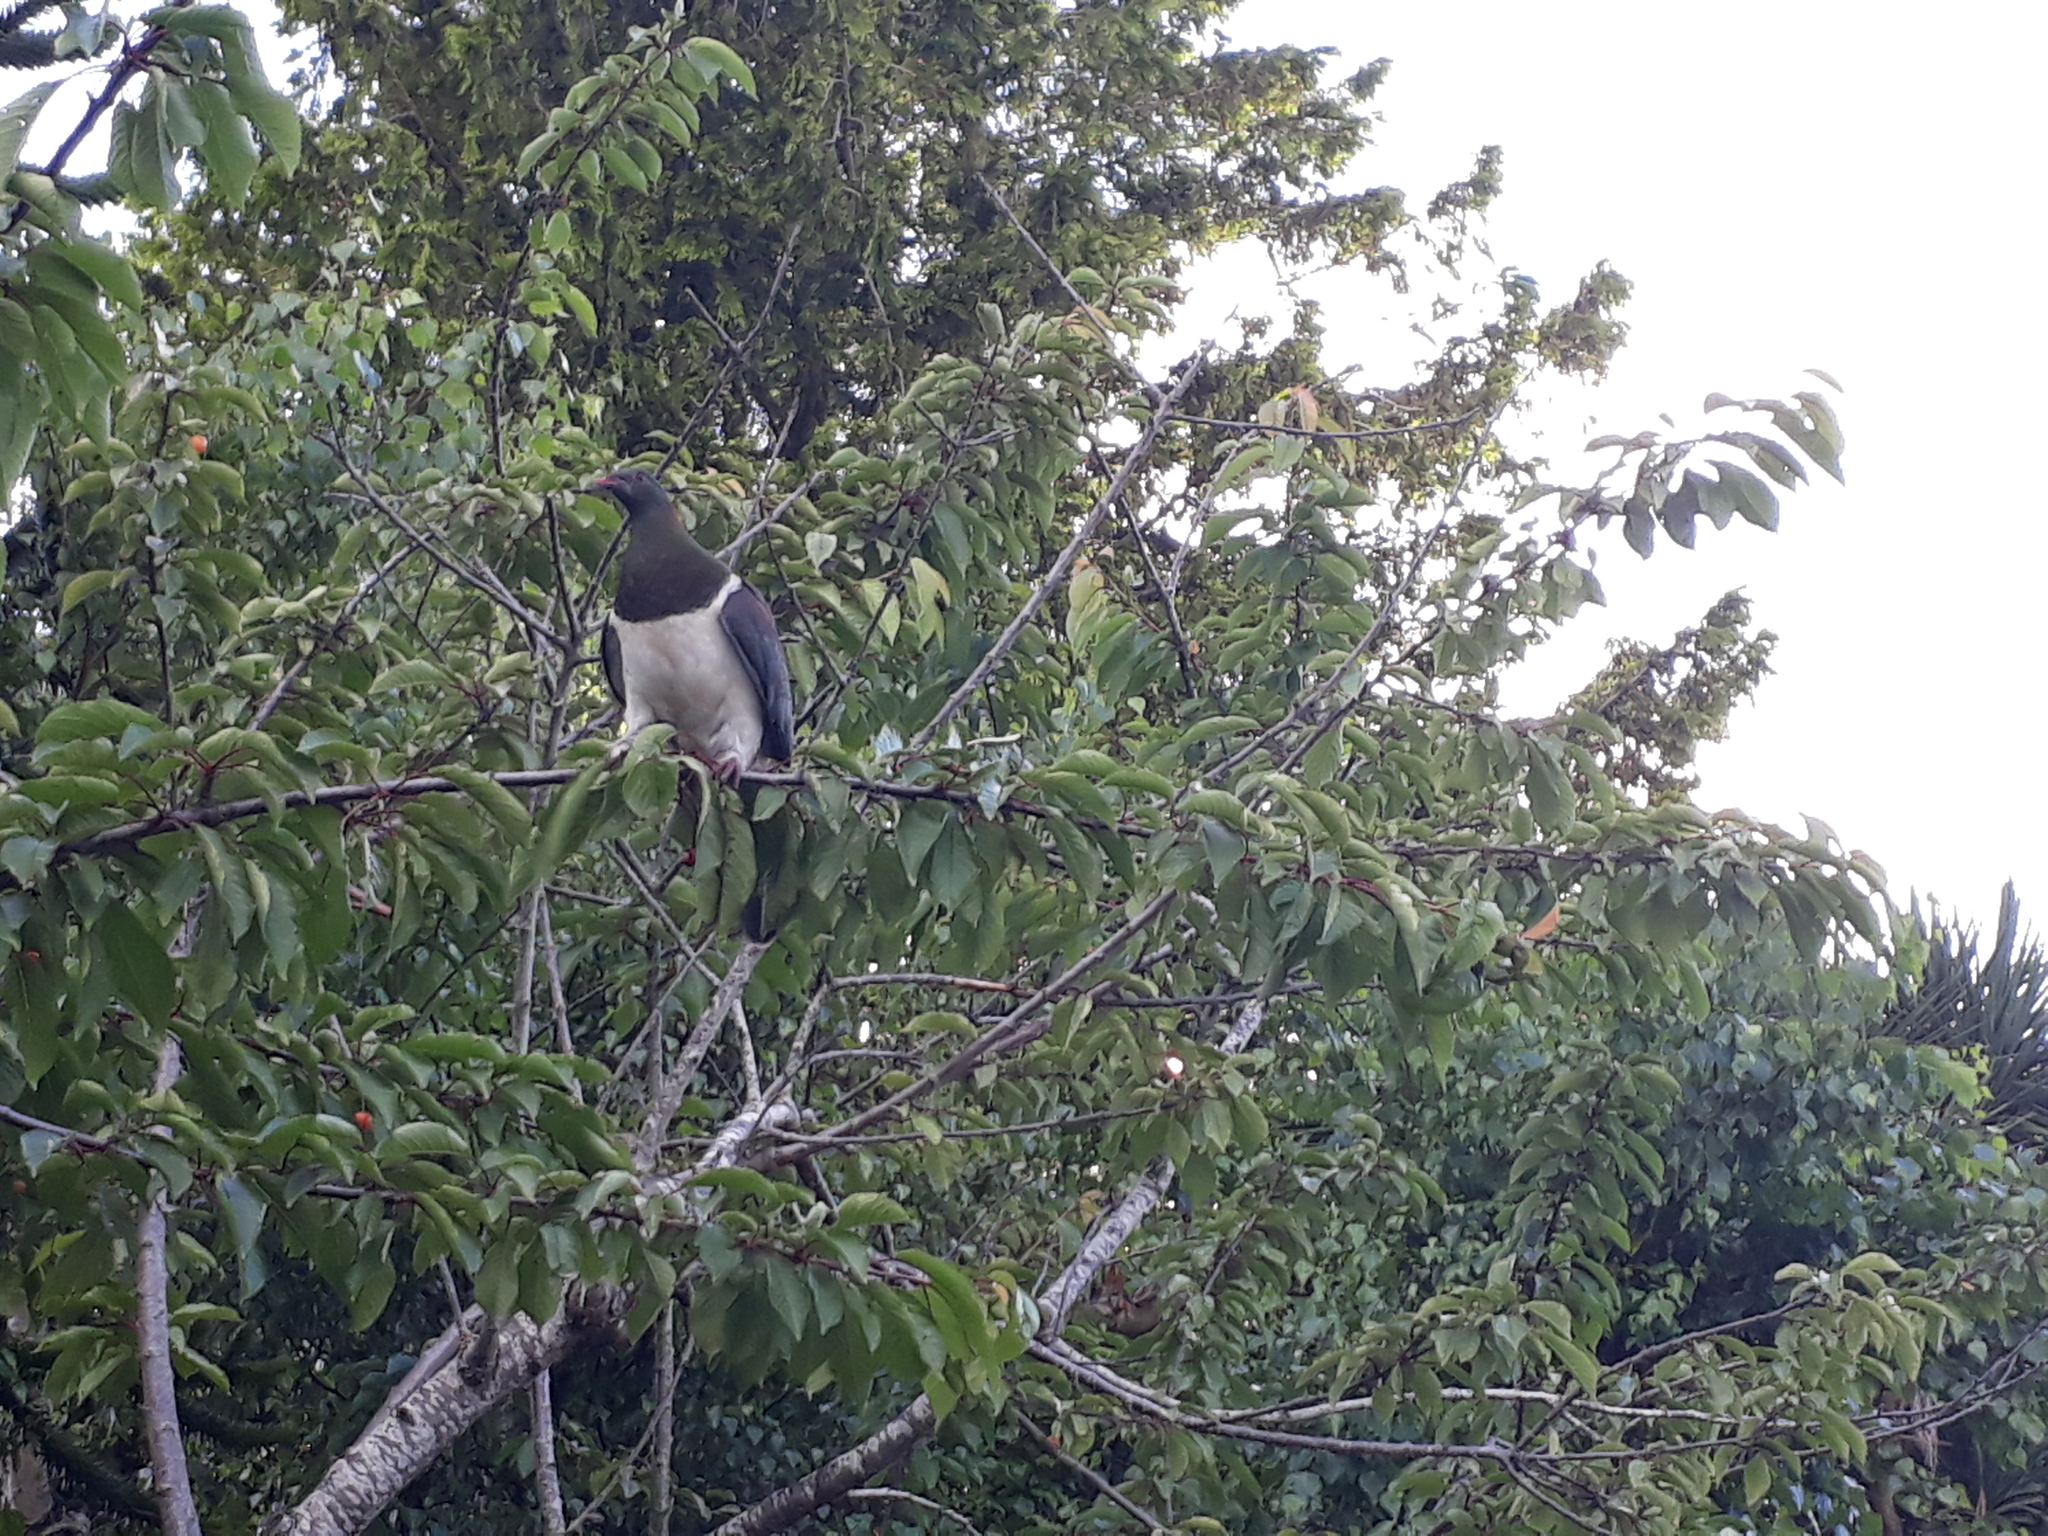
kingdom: Animalia
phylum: Chordata
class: Aves
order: Columbiformes
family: Columbidae
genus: Hemiphaga
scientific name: Hemiphaga novaeseelandiae
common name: New zealand pigeon
